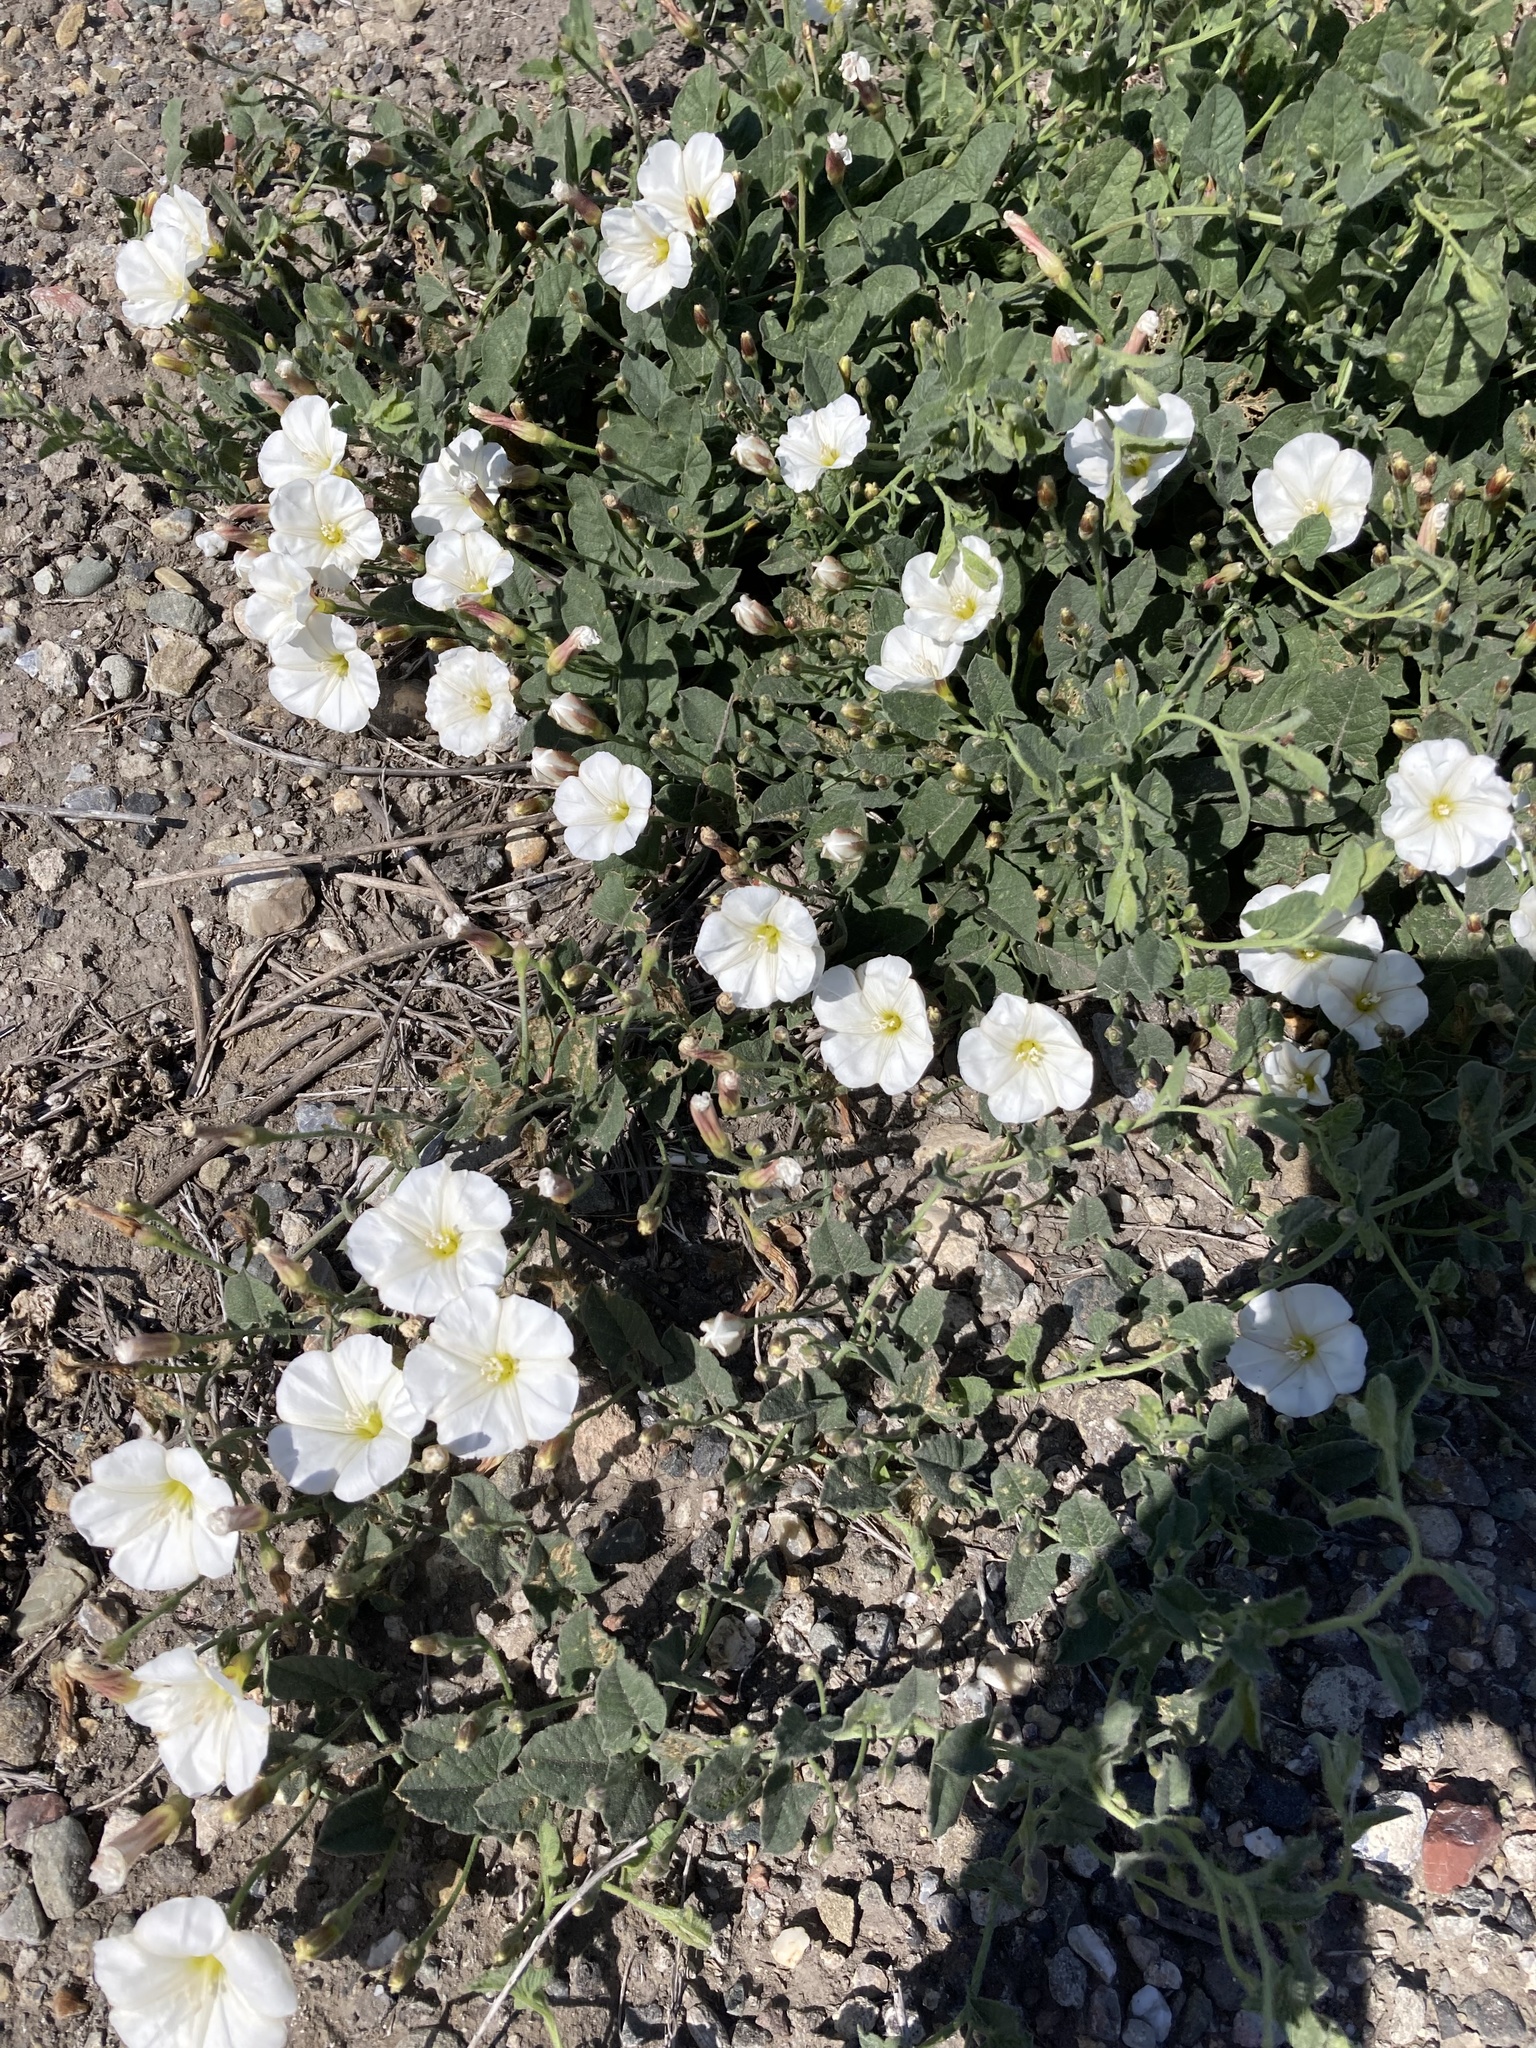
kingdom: Plantae
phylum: Tracheophyta
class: Magnoliopsida
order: Solanales
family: Convolvulaceae
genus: Convolvulus
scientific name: Convolvulus arvensis
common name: Field bindweed
